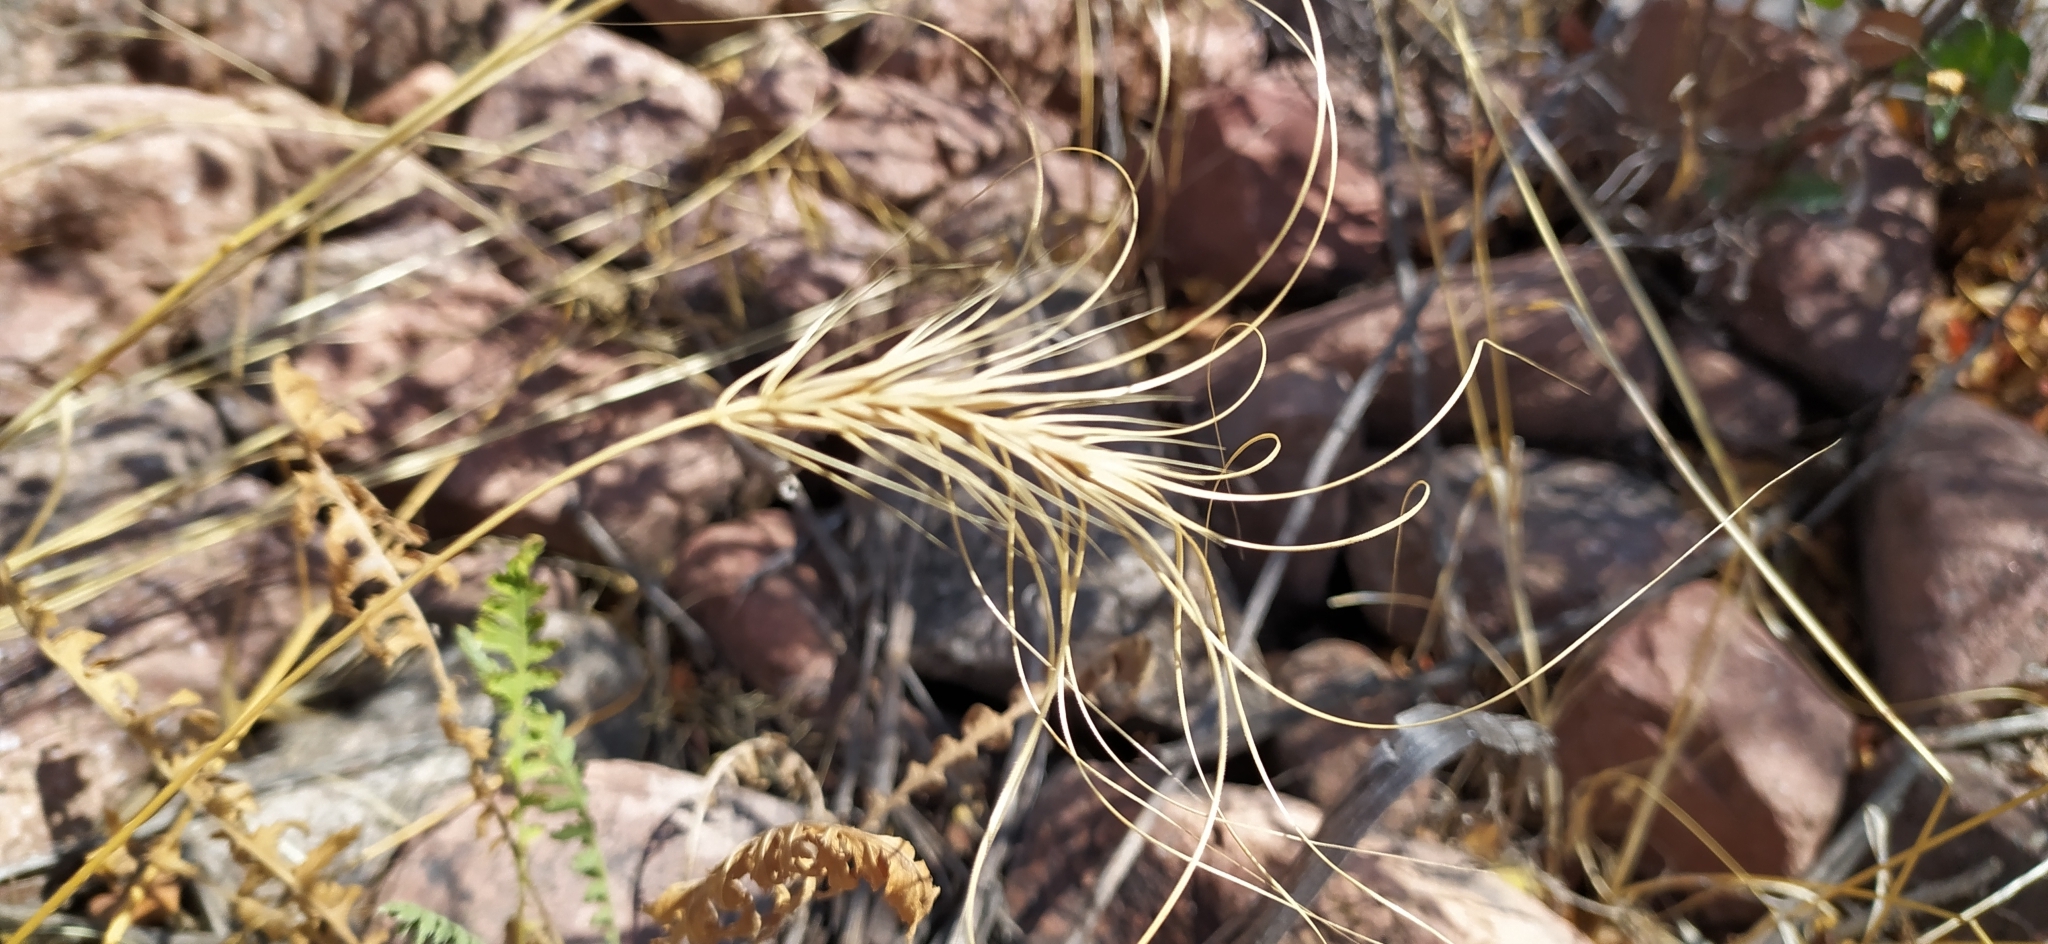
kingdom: Plantae
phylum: Tracheophyta
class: Liliopsida
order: Poales
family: Poaceae
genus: Taeniatherum
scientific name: Taeniatherum caput-medusae
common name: Medusahead
